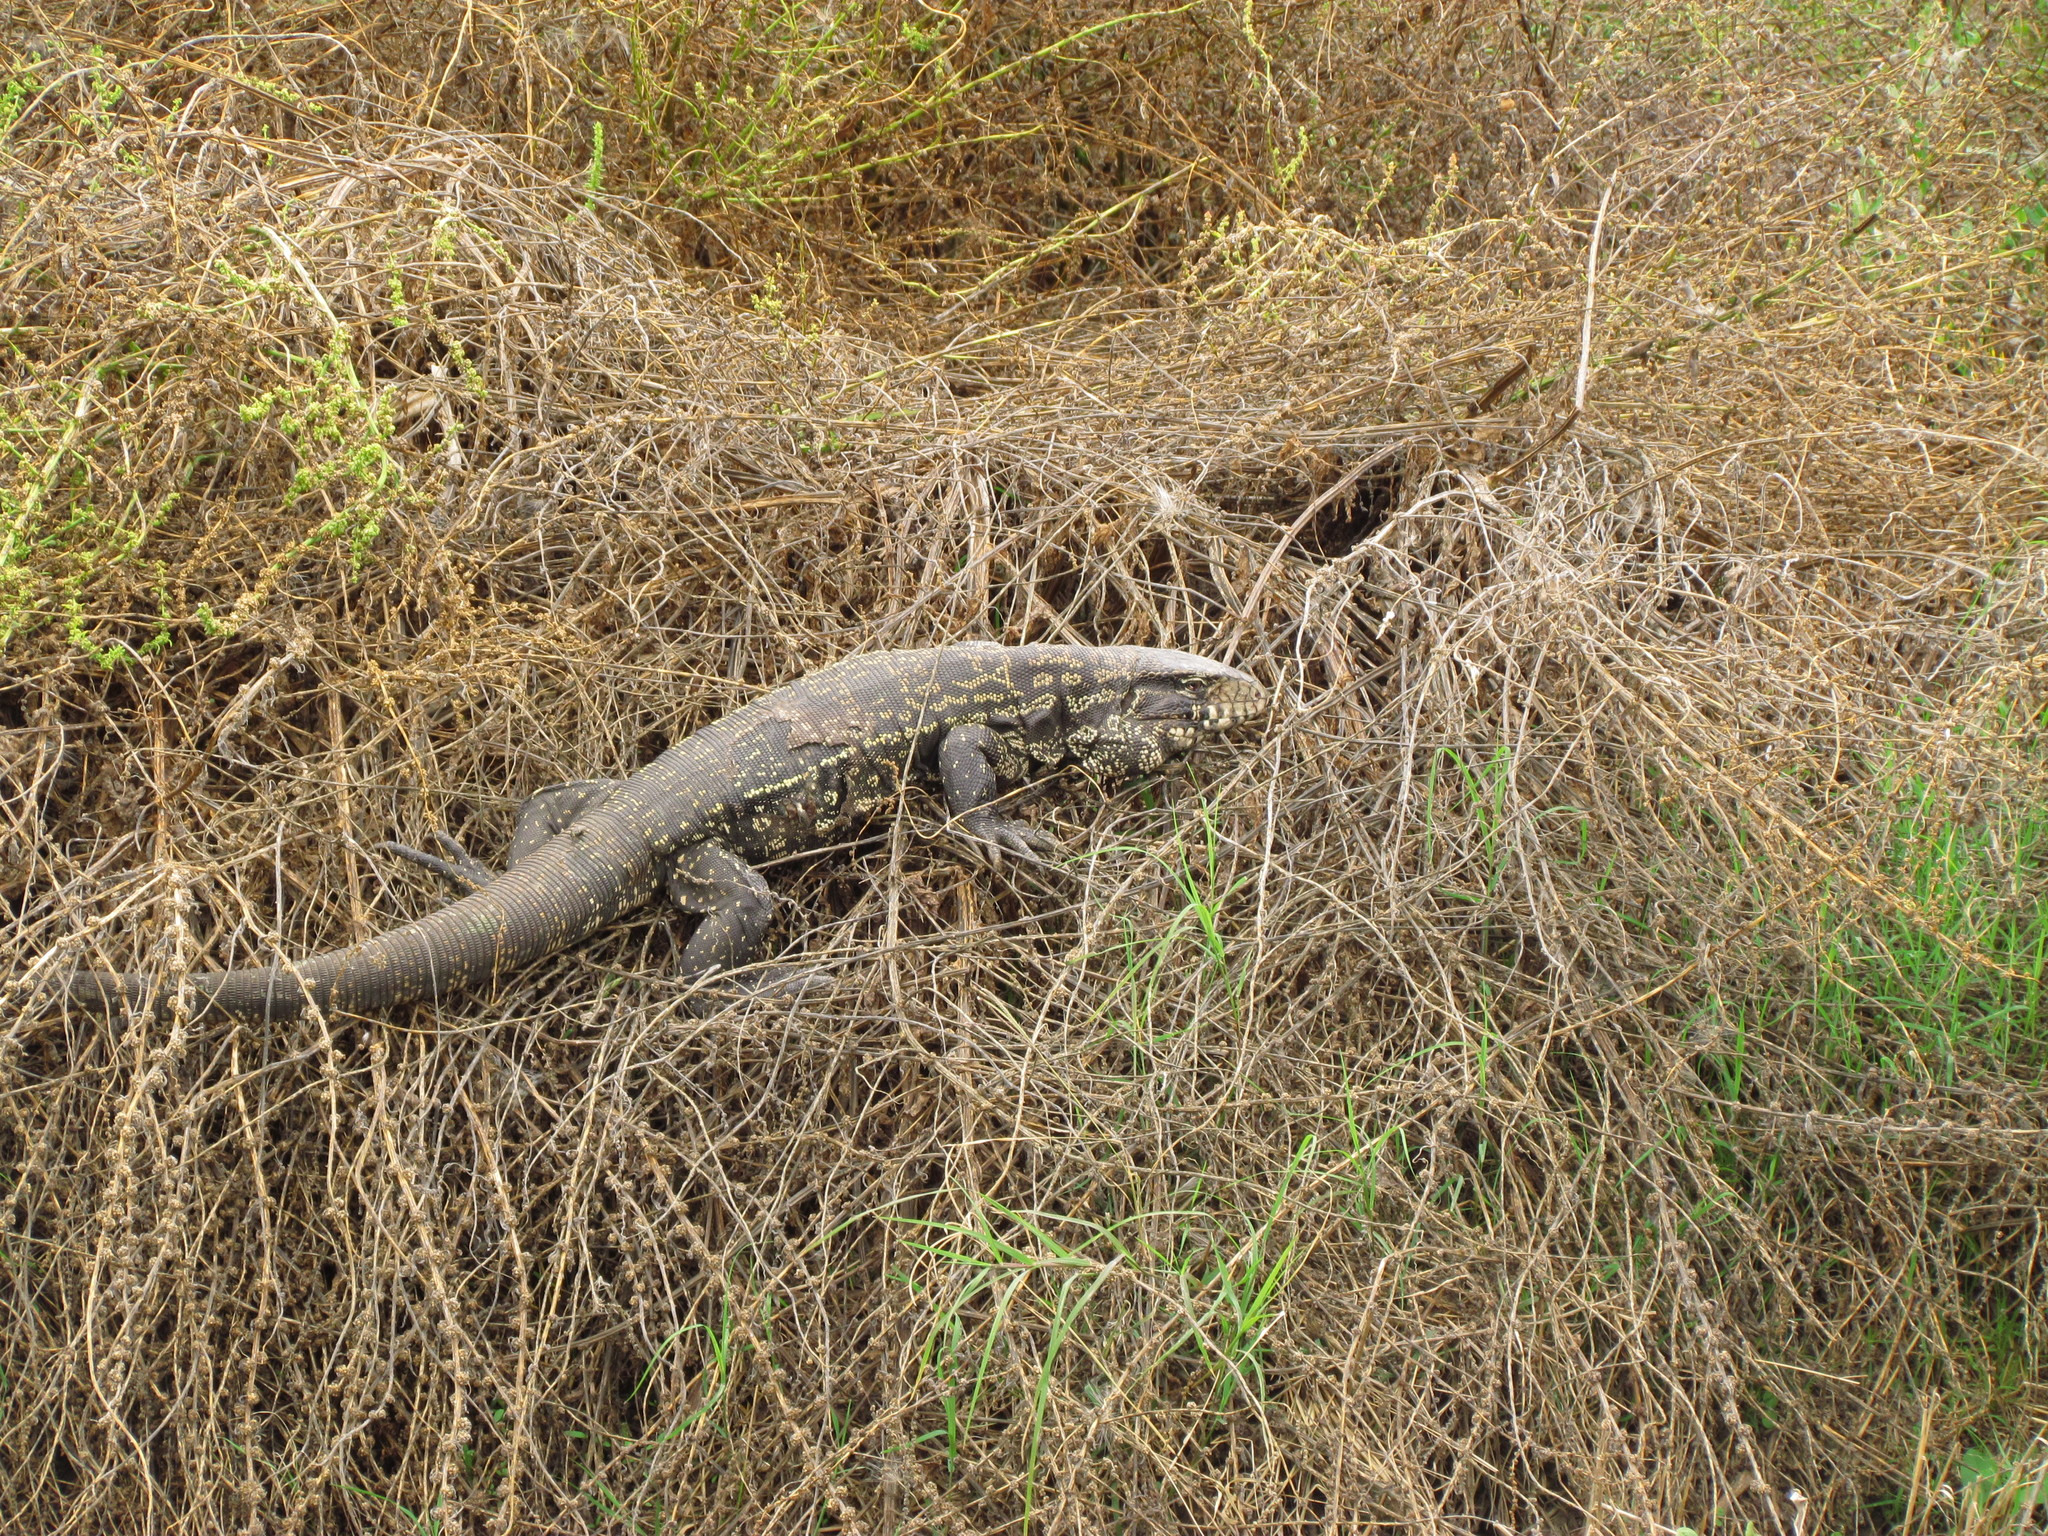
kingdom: Animalia
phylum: Chordata
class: Squamata
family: Teiidae
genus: Salvator
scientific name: Salvator merianae
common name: Argentine black and white tegu
